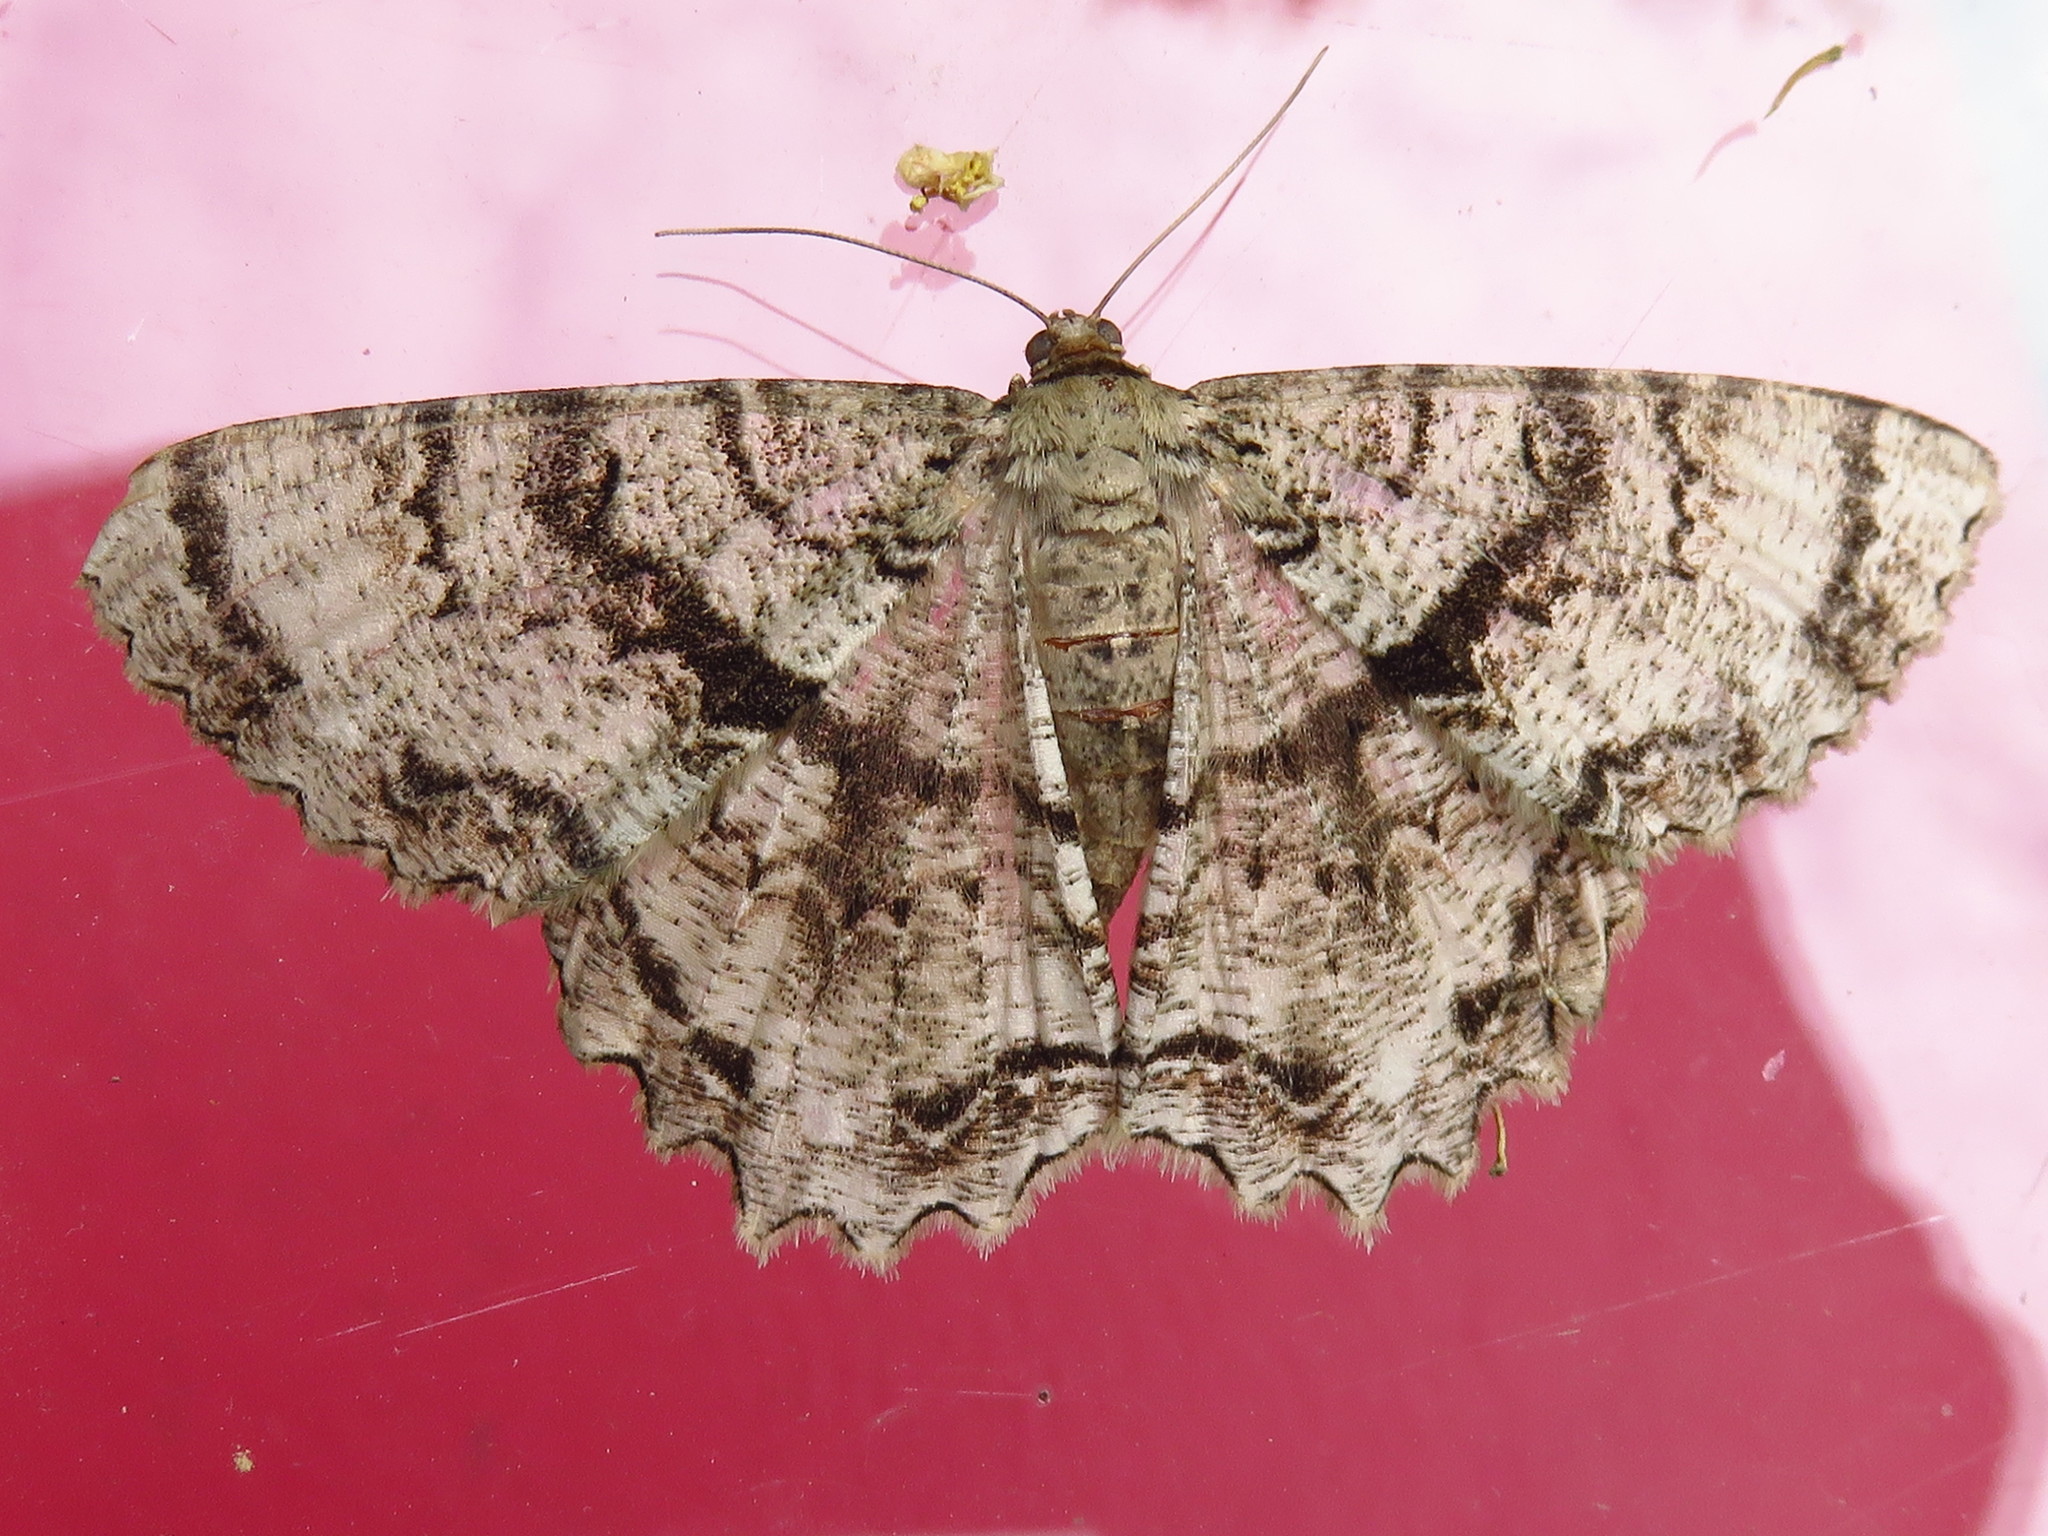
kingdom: Animalia
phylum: Arthropoda
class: Insecta
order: Lepidoptera
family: Geometridae
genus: Epimecis
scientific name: Epimecis hortaria
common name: Tulip-tree beauty
